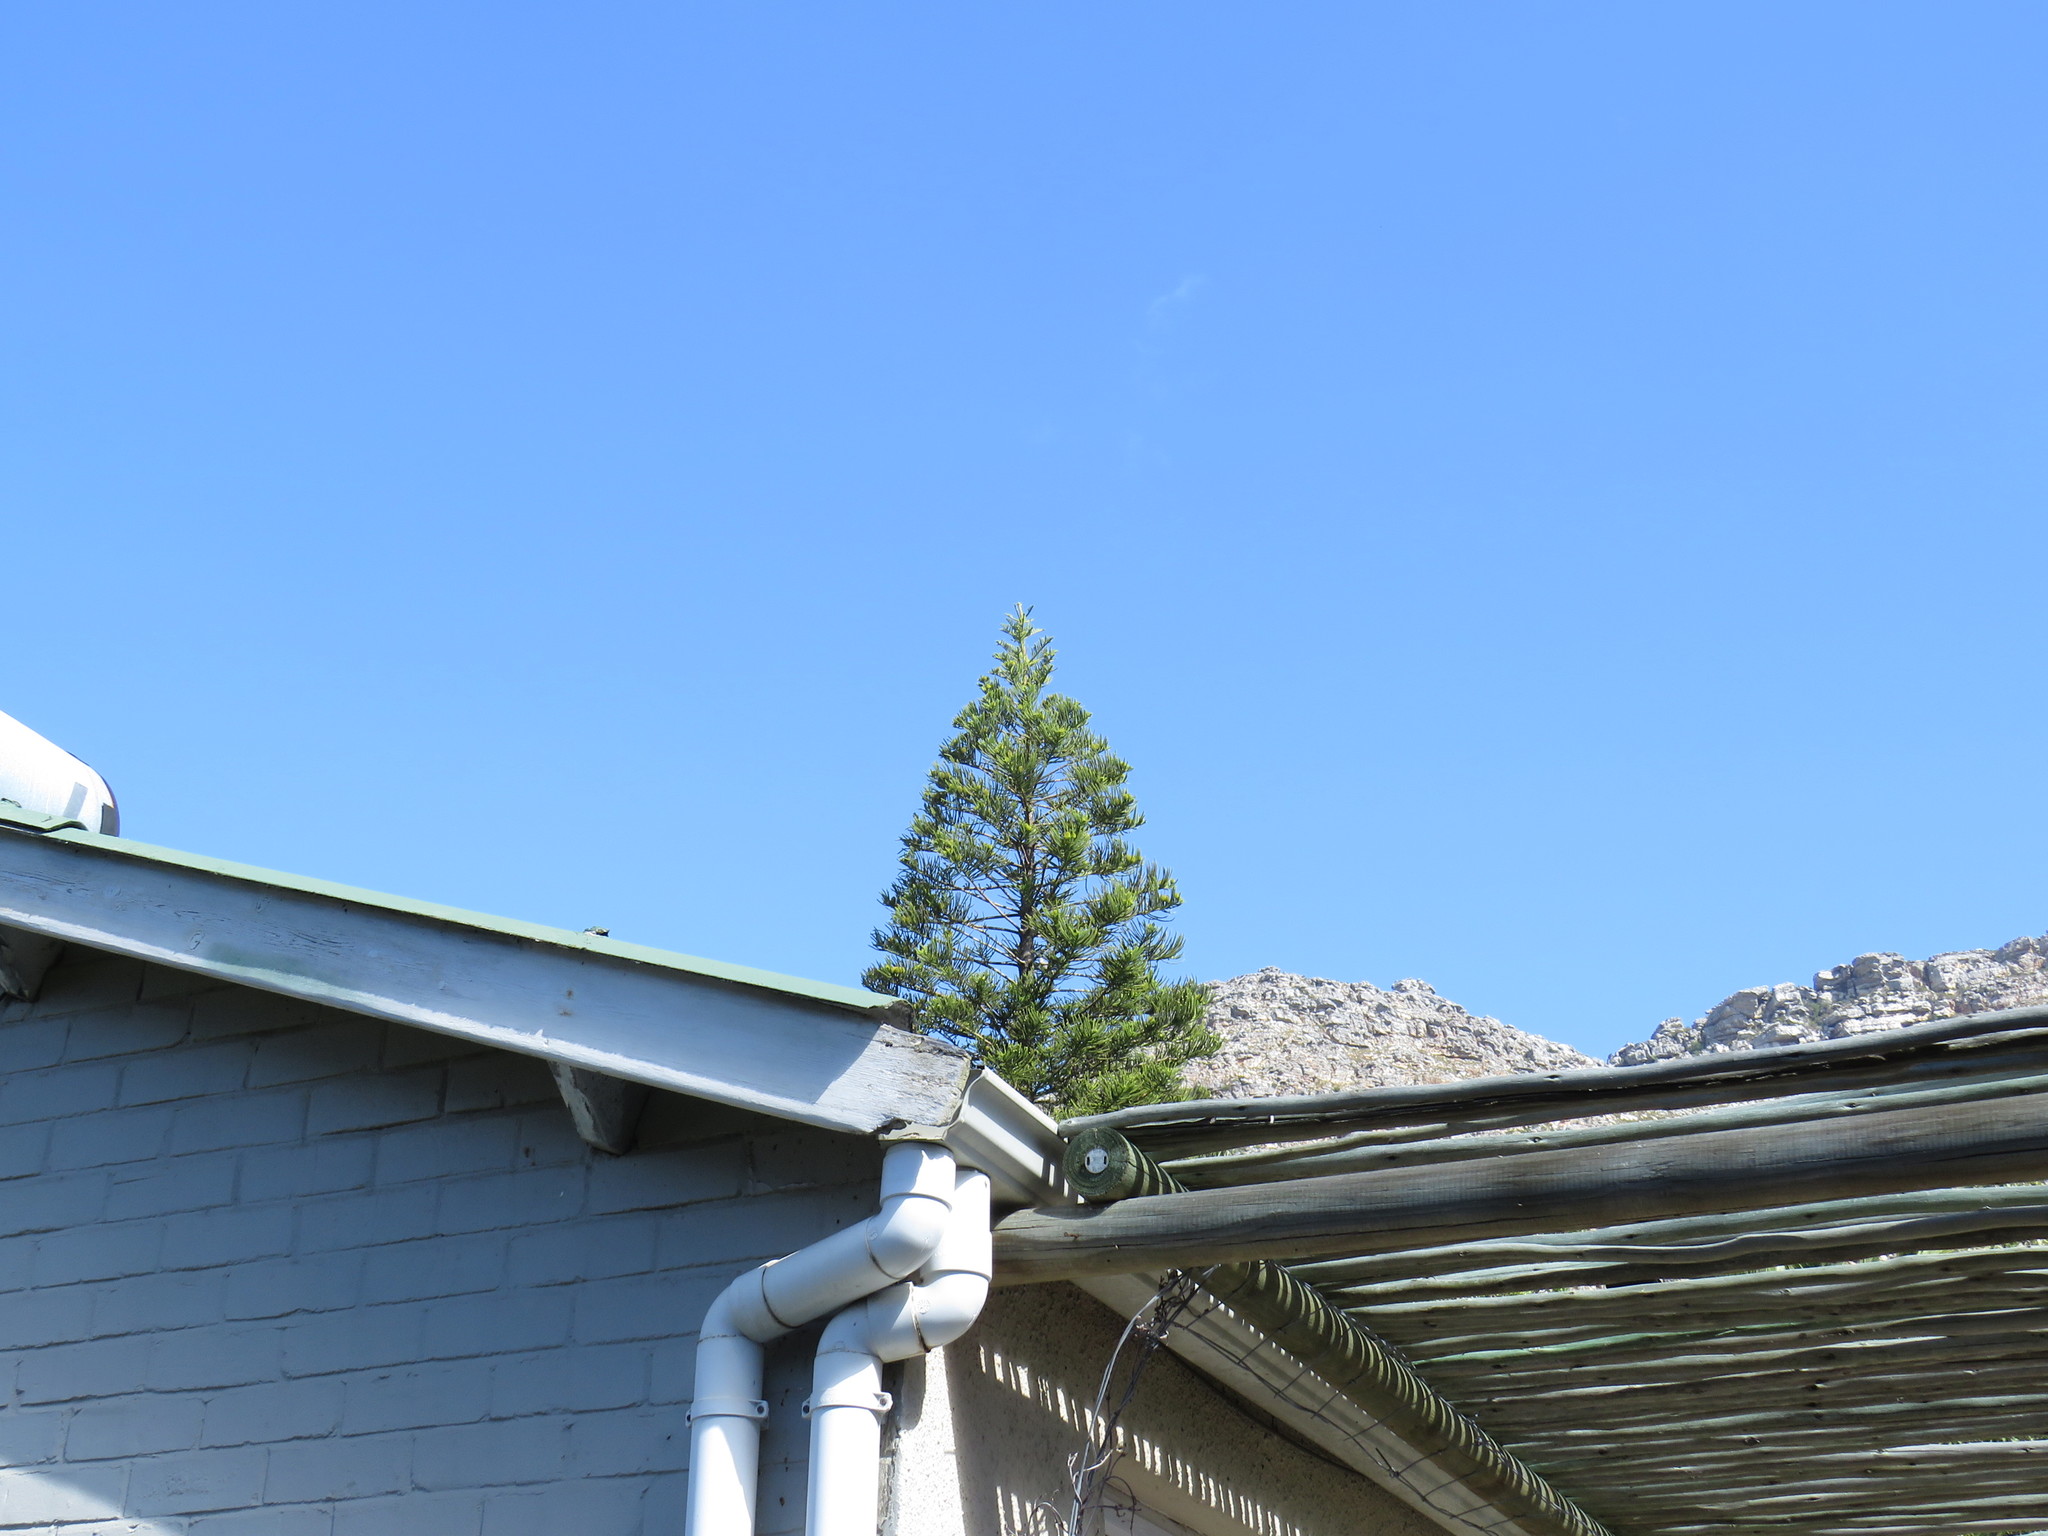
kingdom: Animalia
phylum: Chordata
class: Aves
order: Columbiformes
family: Columbidae
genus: Streptopelia
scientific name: Streptopelia semitorquata
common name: Red-eyed dove
